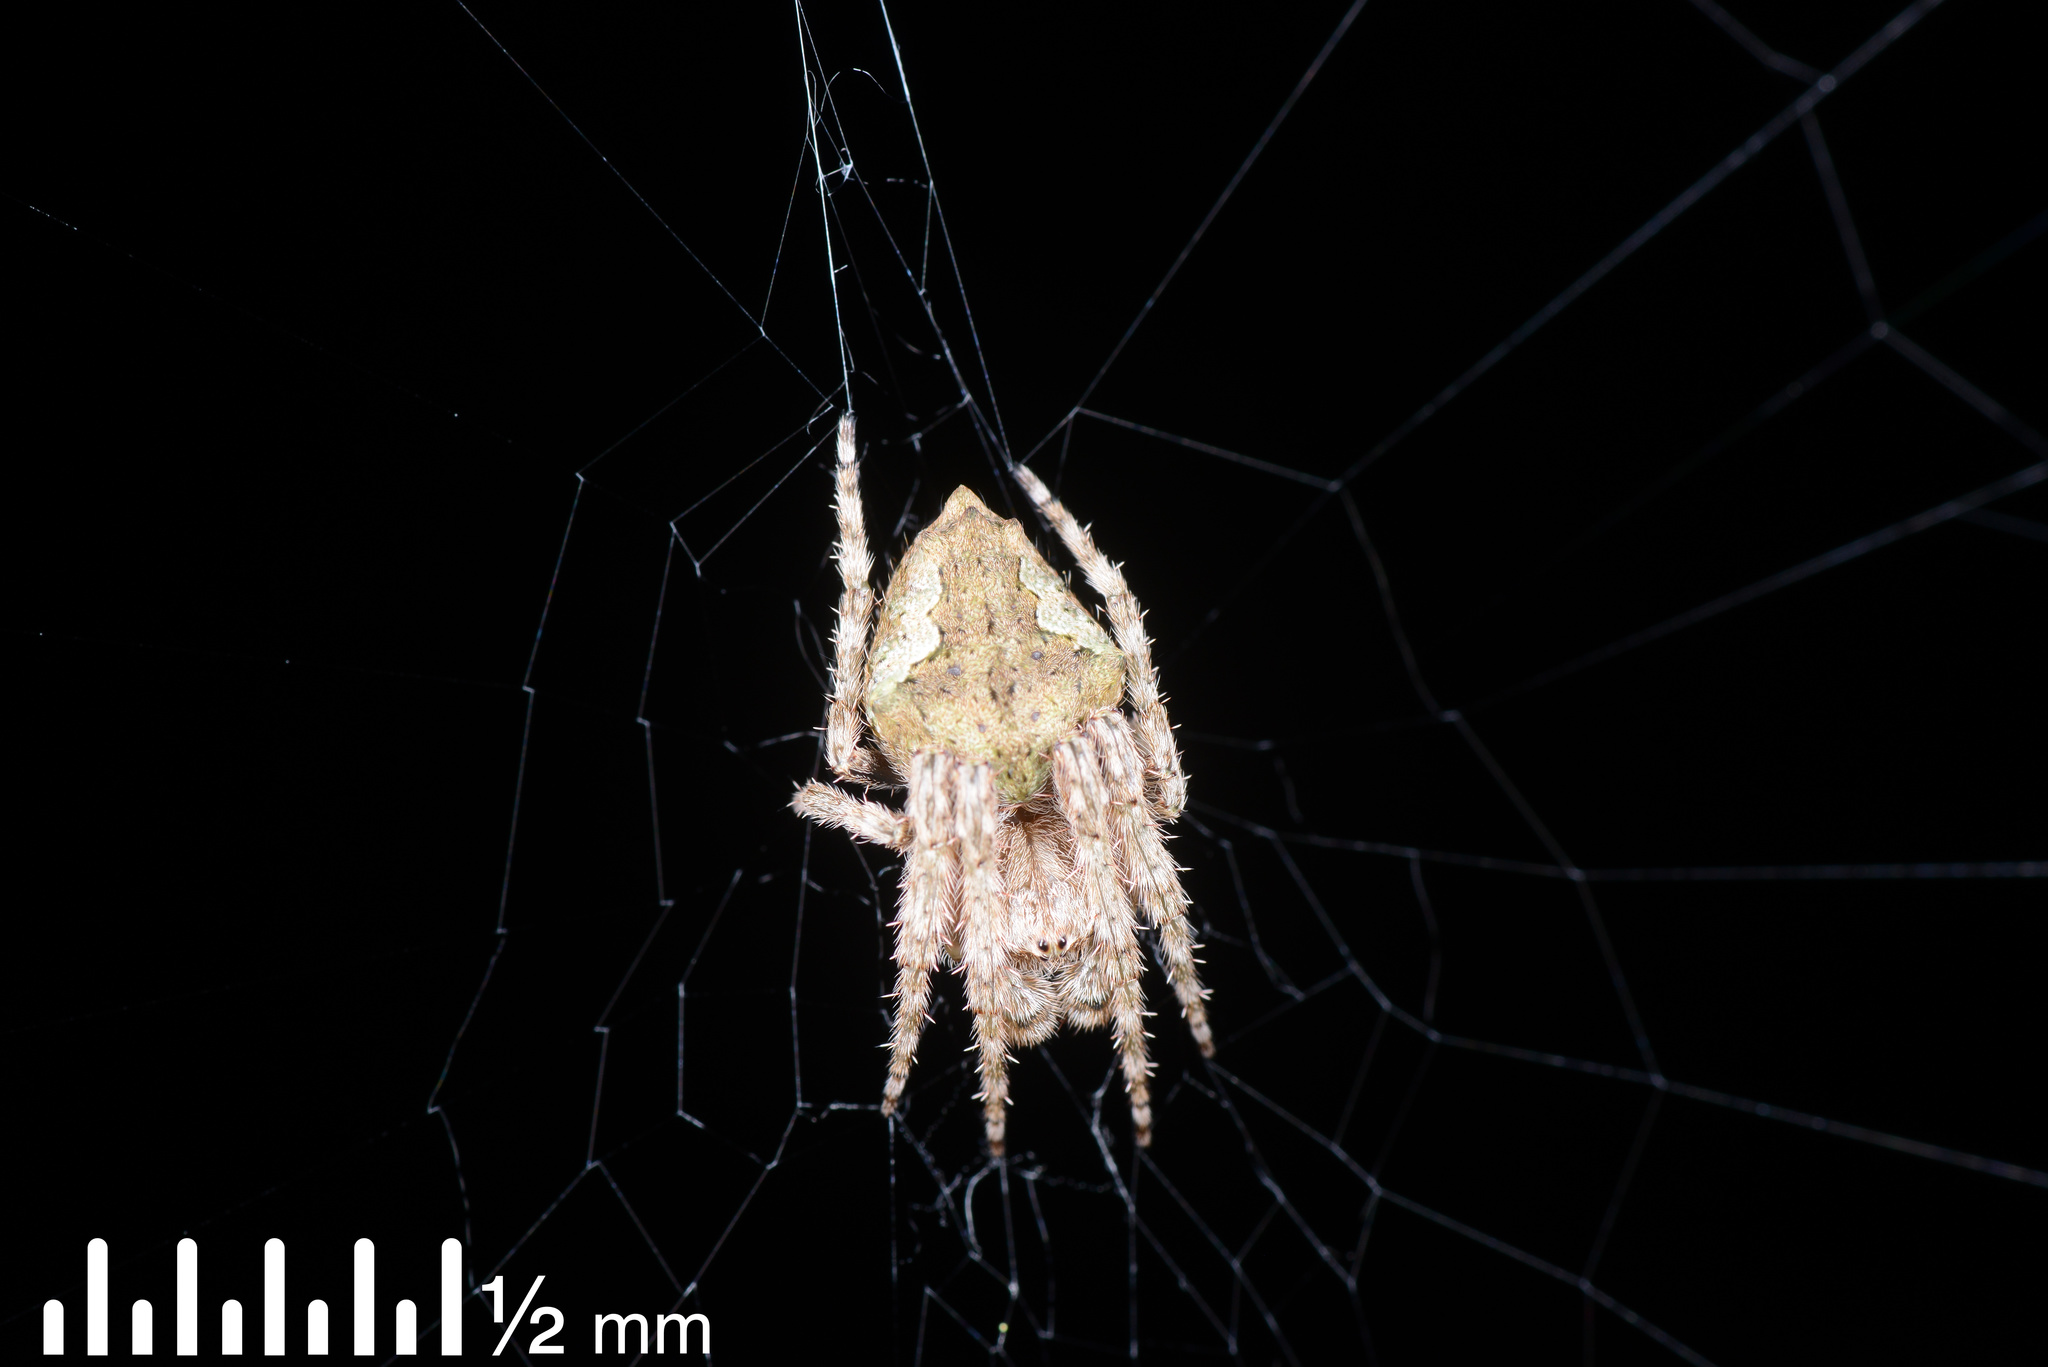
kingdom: Animalia
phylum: Arthropoda
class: Arachnida
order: Araneae
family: Araneidae
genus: Eriophora
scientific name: Eriophora pustulosa
